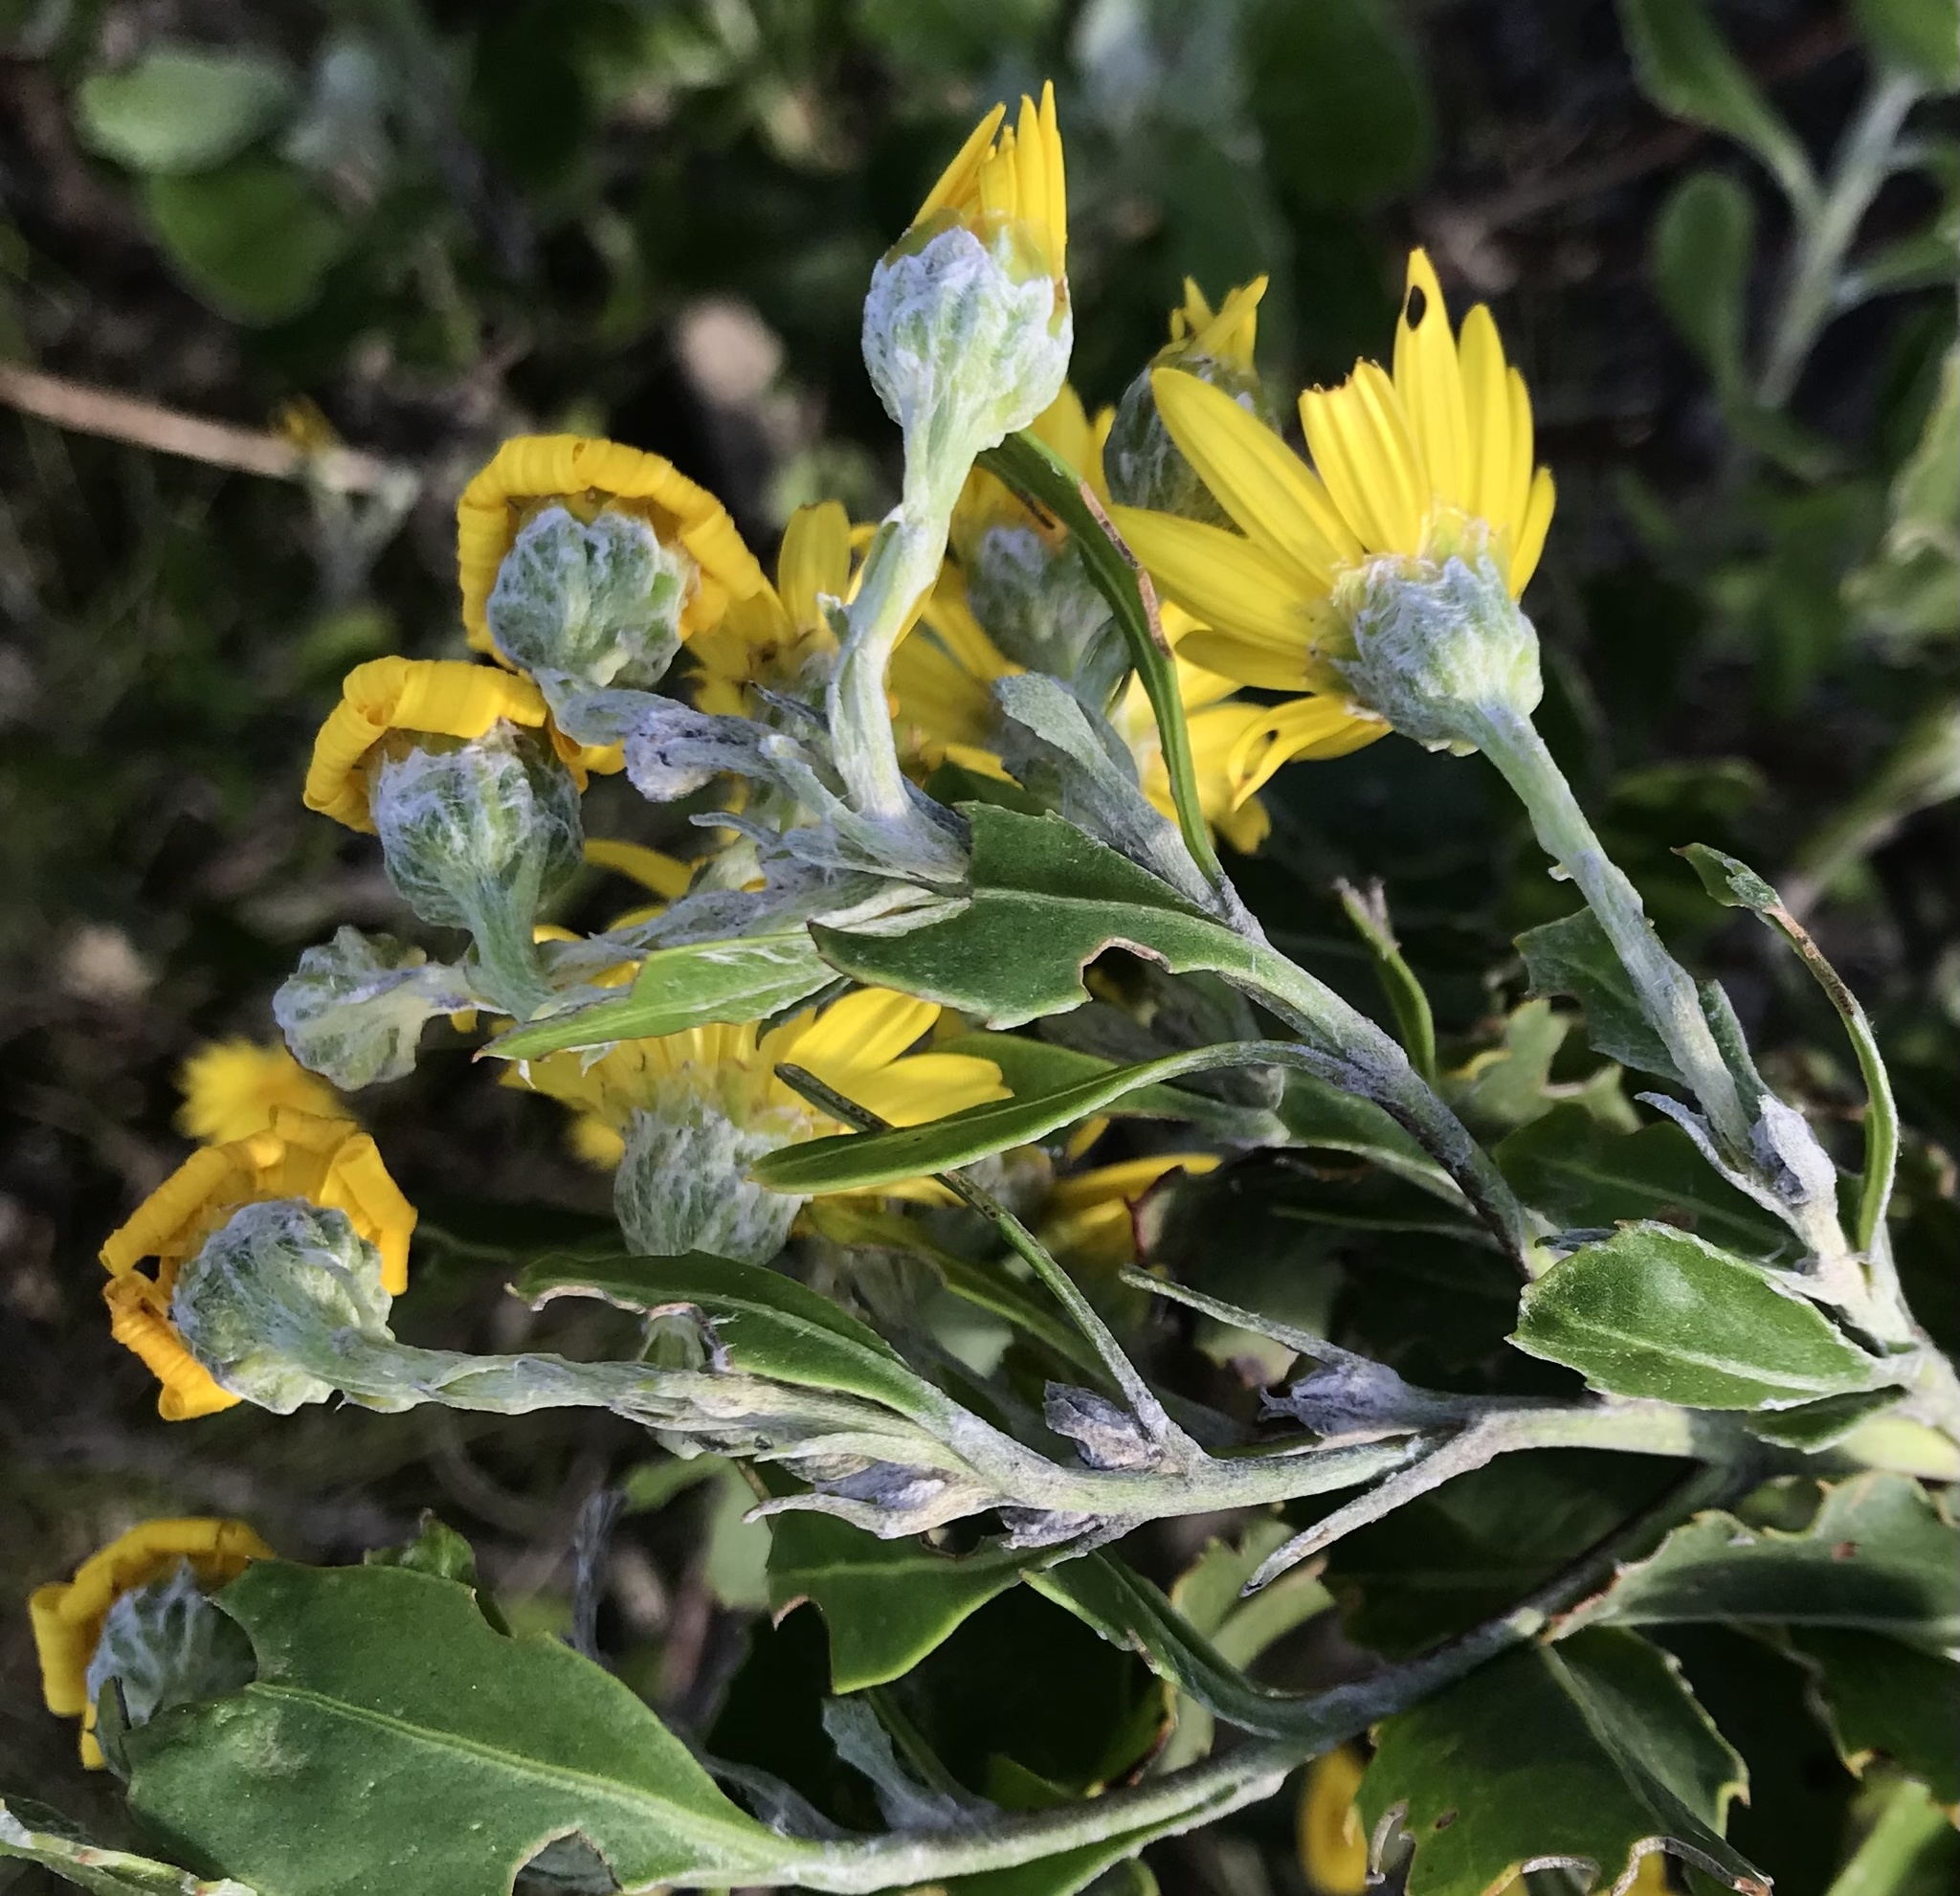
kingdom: Plantae
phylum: Tracheophyta
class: Magnoliopsida
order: Asterales
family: Asteraceae
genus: Osteospermum
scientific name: Osteospermum moniliferum
